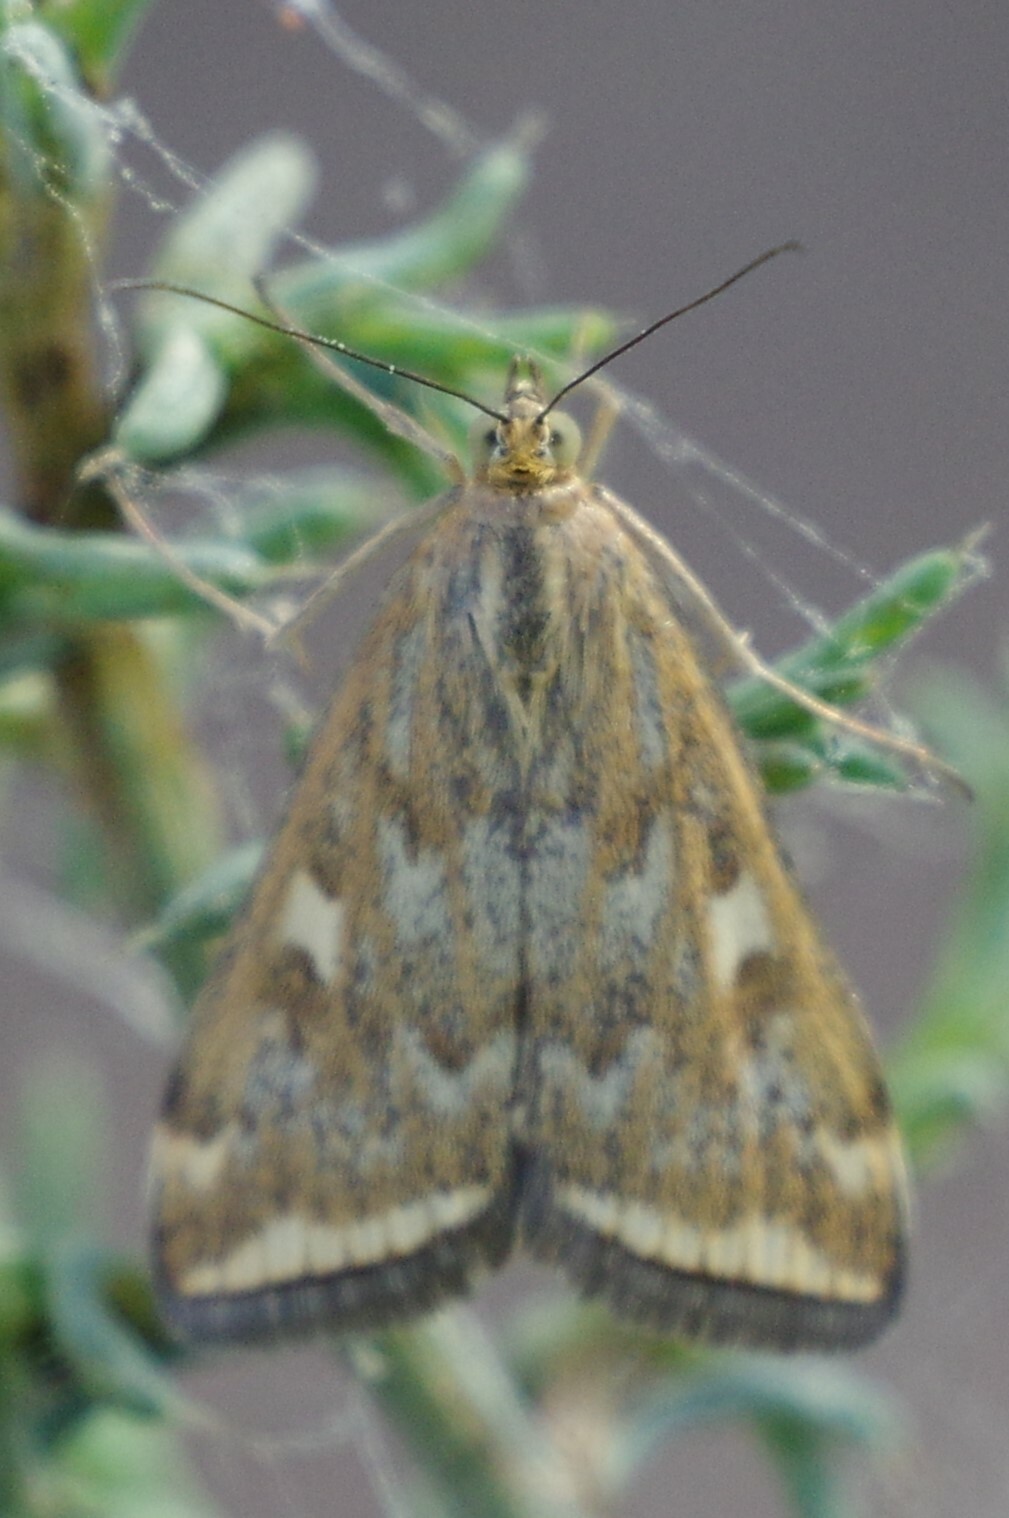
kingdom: Animalia
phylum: Arthropoda
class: Insecta
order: Lepidoptera
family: Crambidae
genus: Loxostege
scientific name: Loxostege
